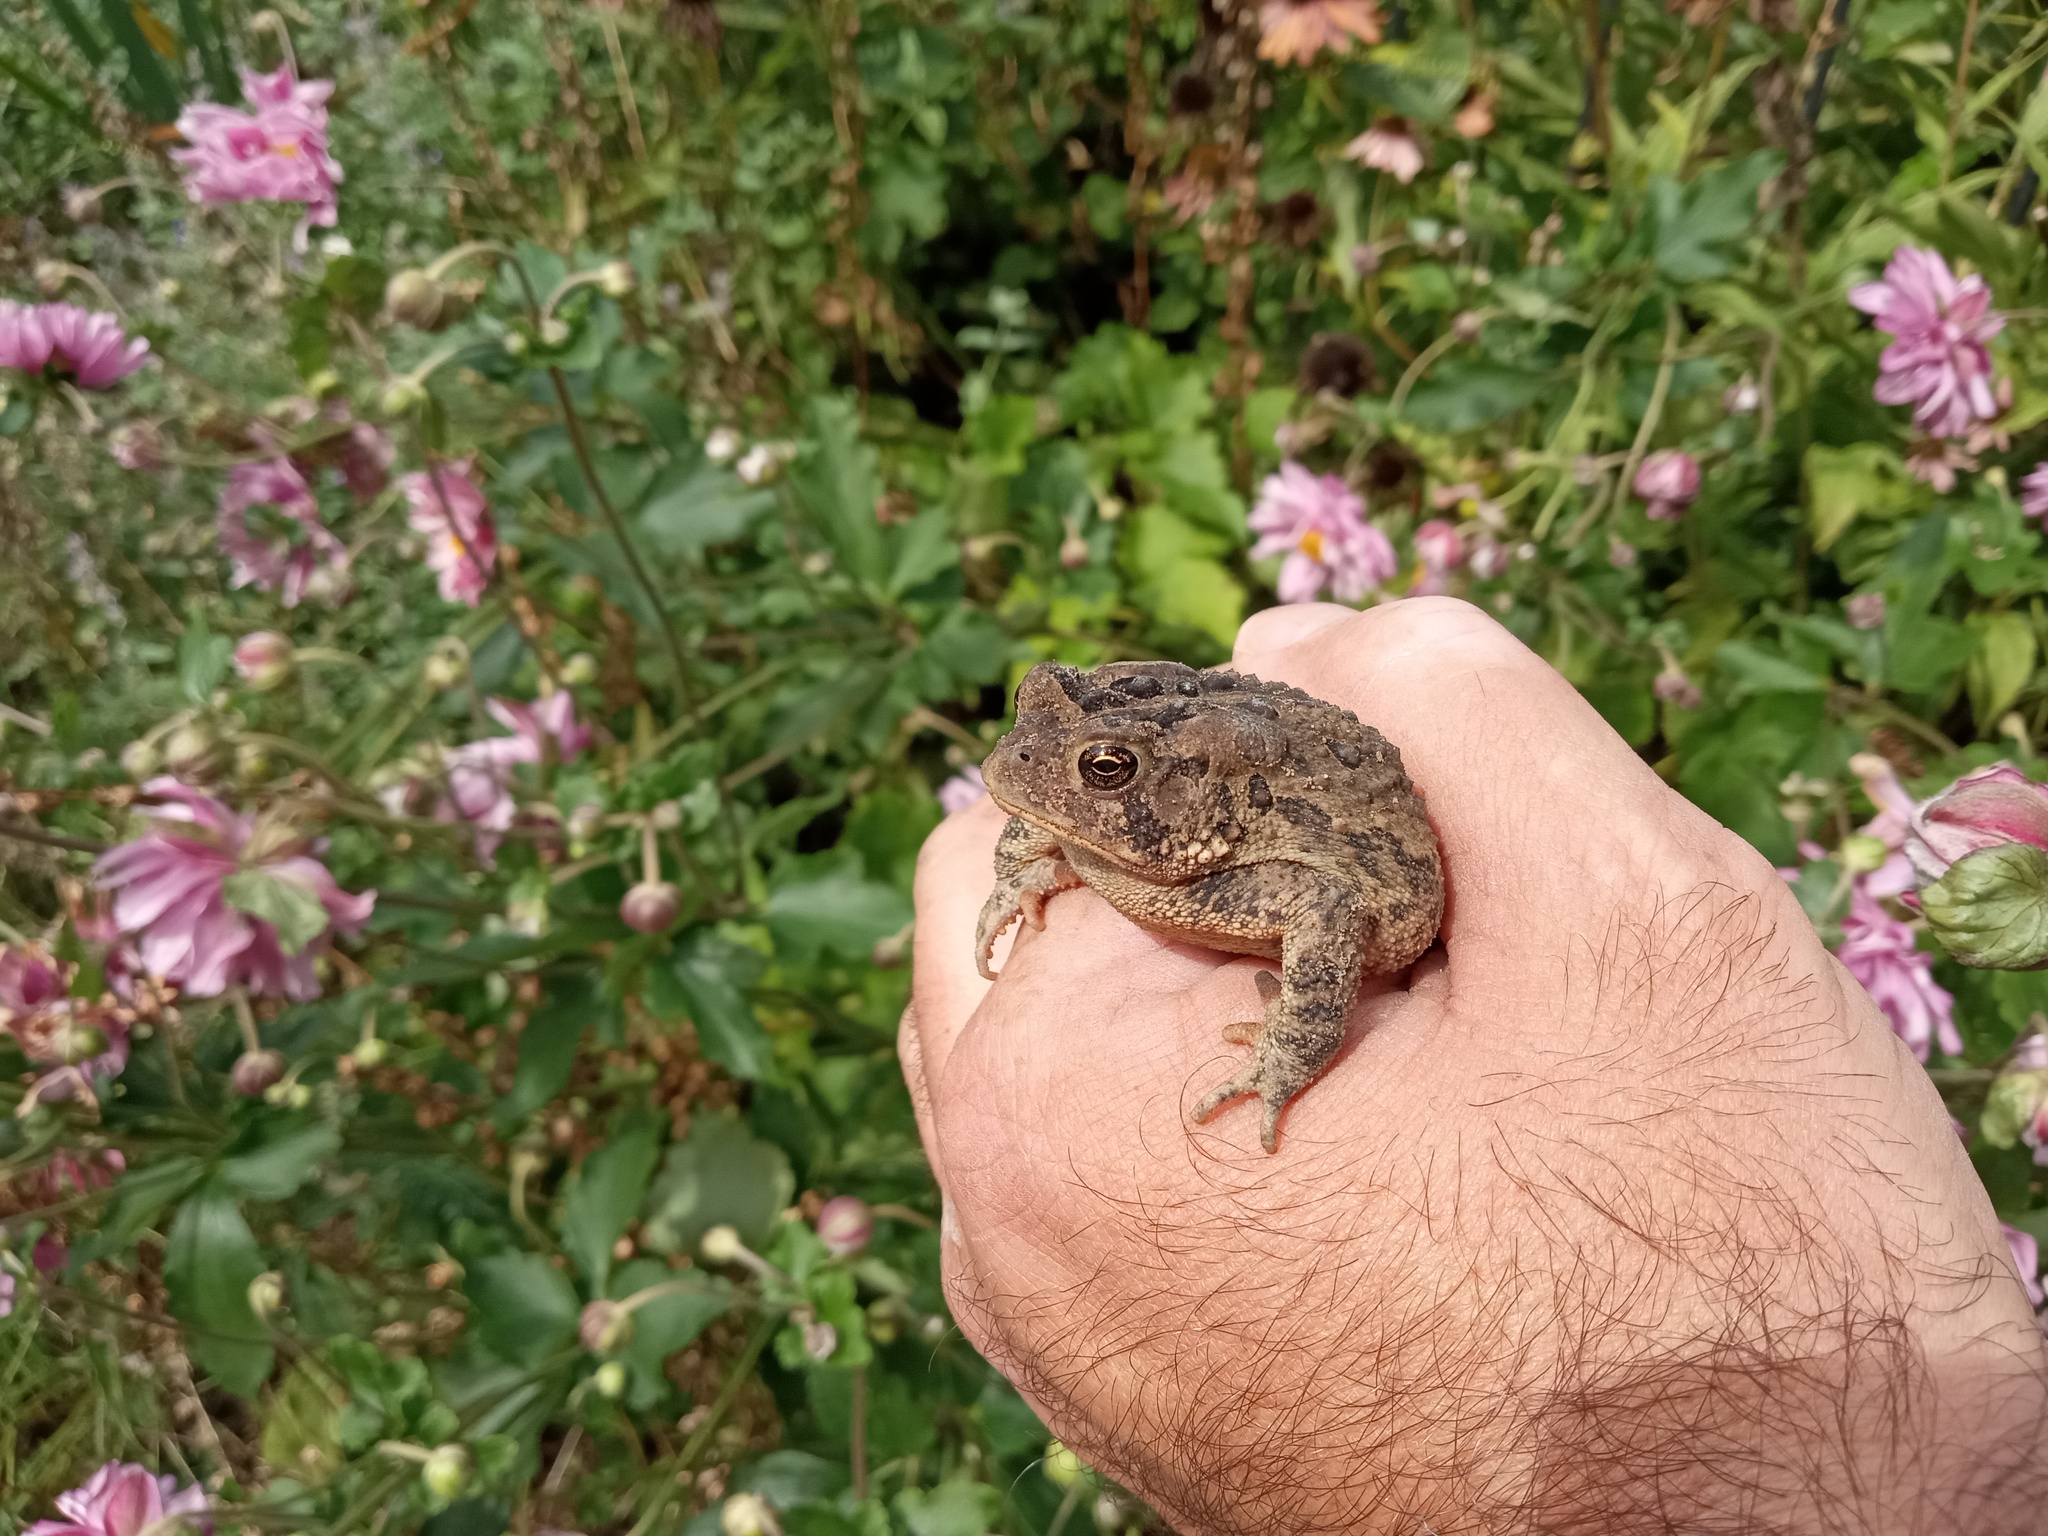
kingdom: Animalia
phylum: Chordata
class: Amphibia
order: Anura
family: Bufonidae
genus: Anaxyrus
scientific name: Anaxyrus americanus
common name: American toad
